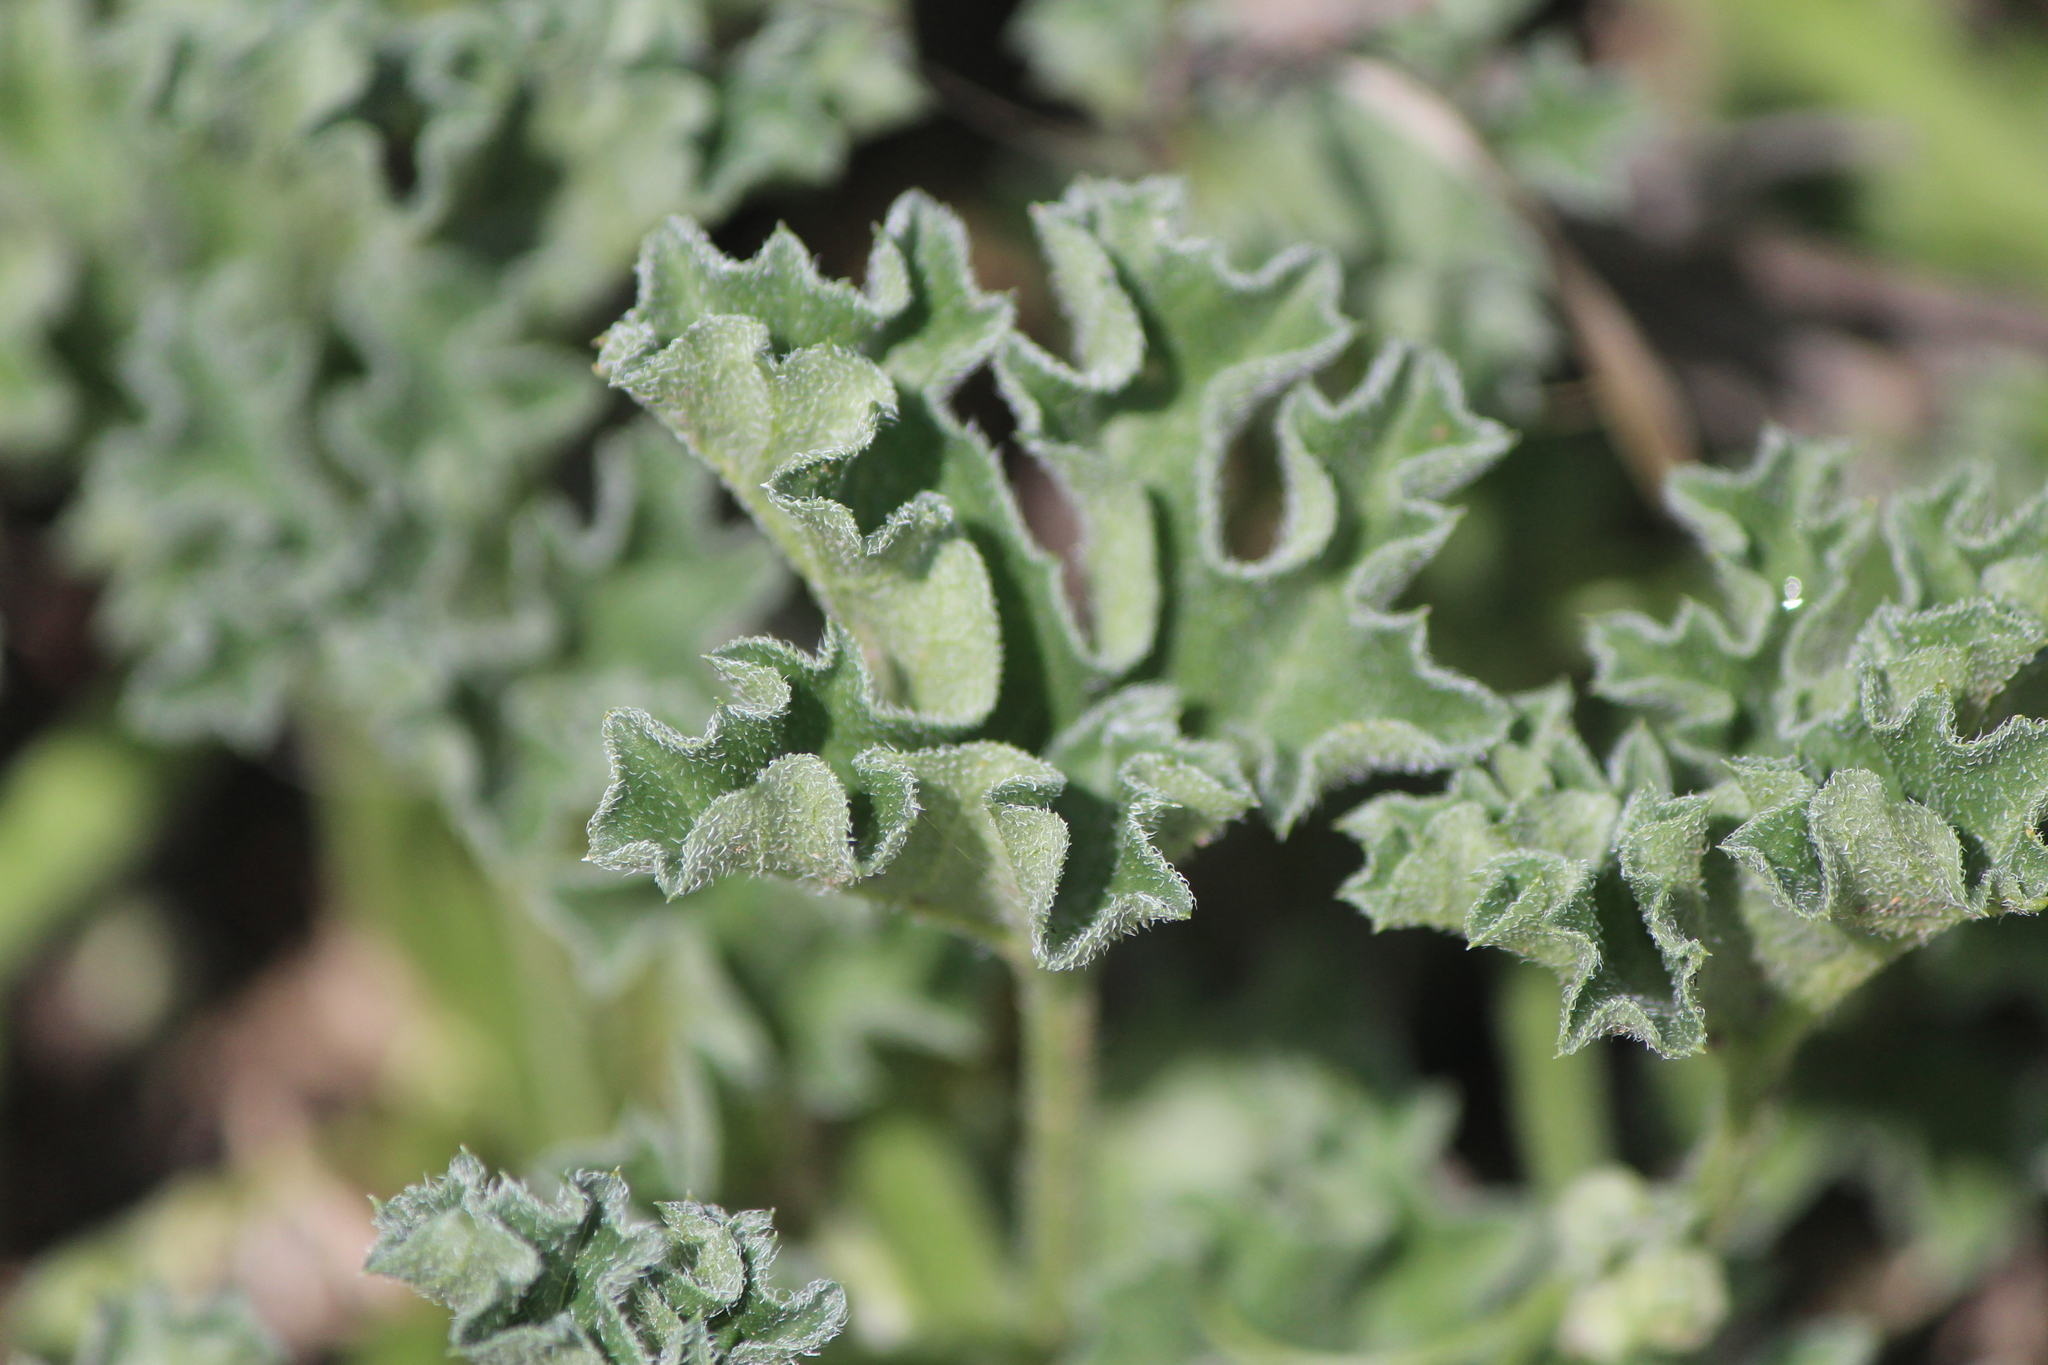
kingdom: Plantae
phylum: Tracheophyta
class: Magnoliopsida
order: Cucurbitales
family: Cucurbitaceae
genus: Apodanthera
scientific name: Apodanthera undulata
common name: Melon-loco
